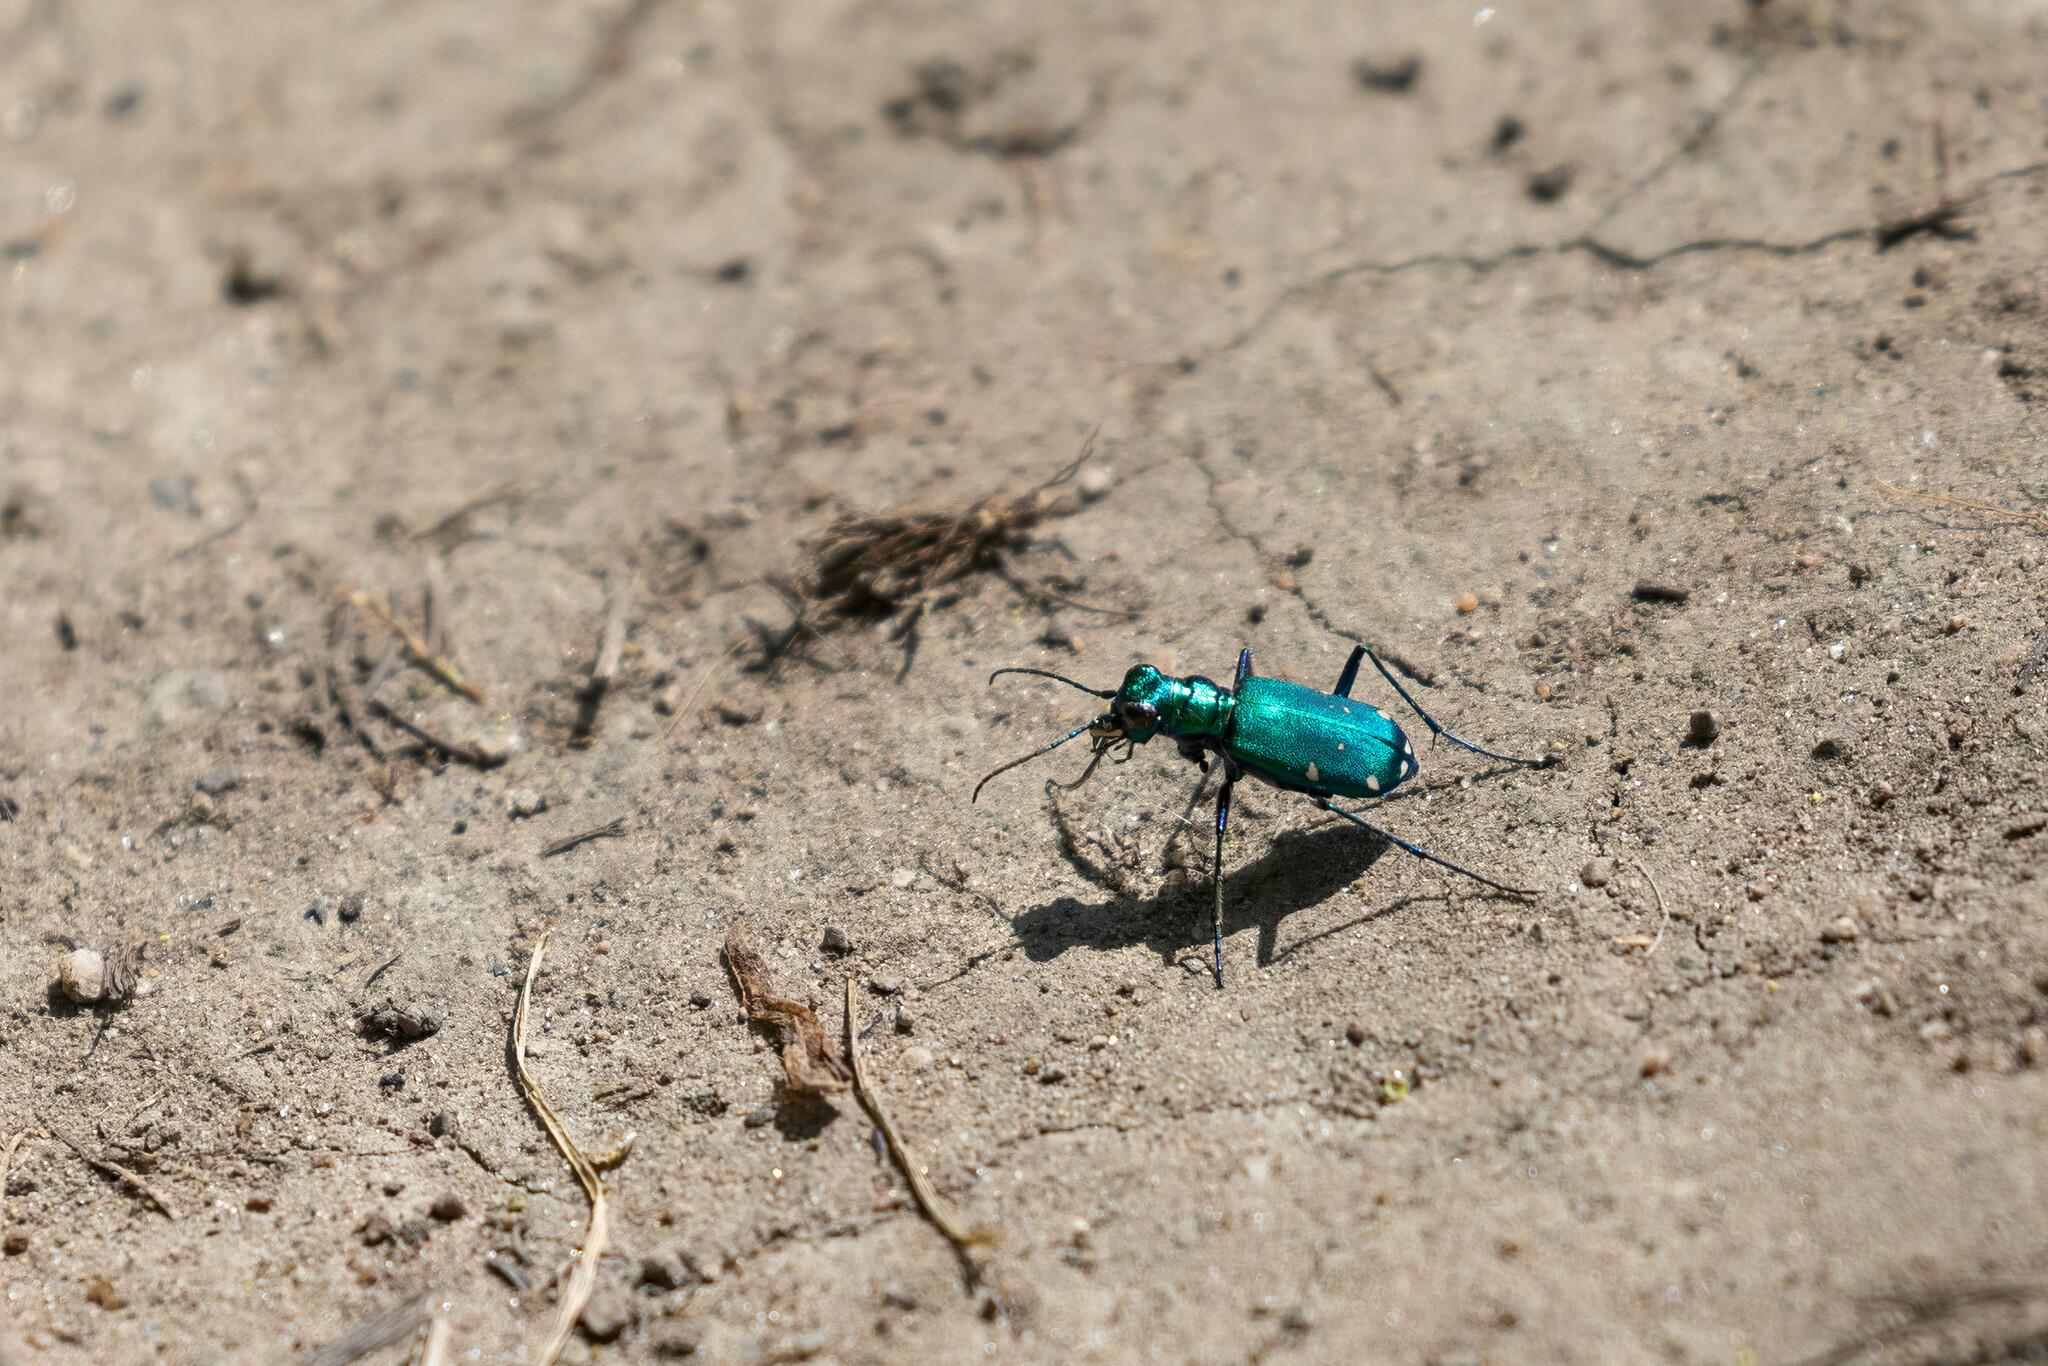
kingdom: Animalia
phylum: Arthropoda
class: Insecta
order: Coleoptera
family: Carabidae
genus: Cicindela
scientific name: Cicindela sexguttata
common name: Six-spotted tiger beetle
